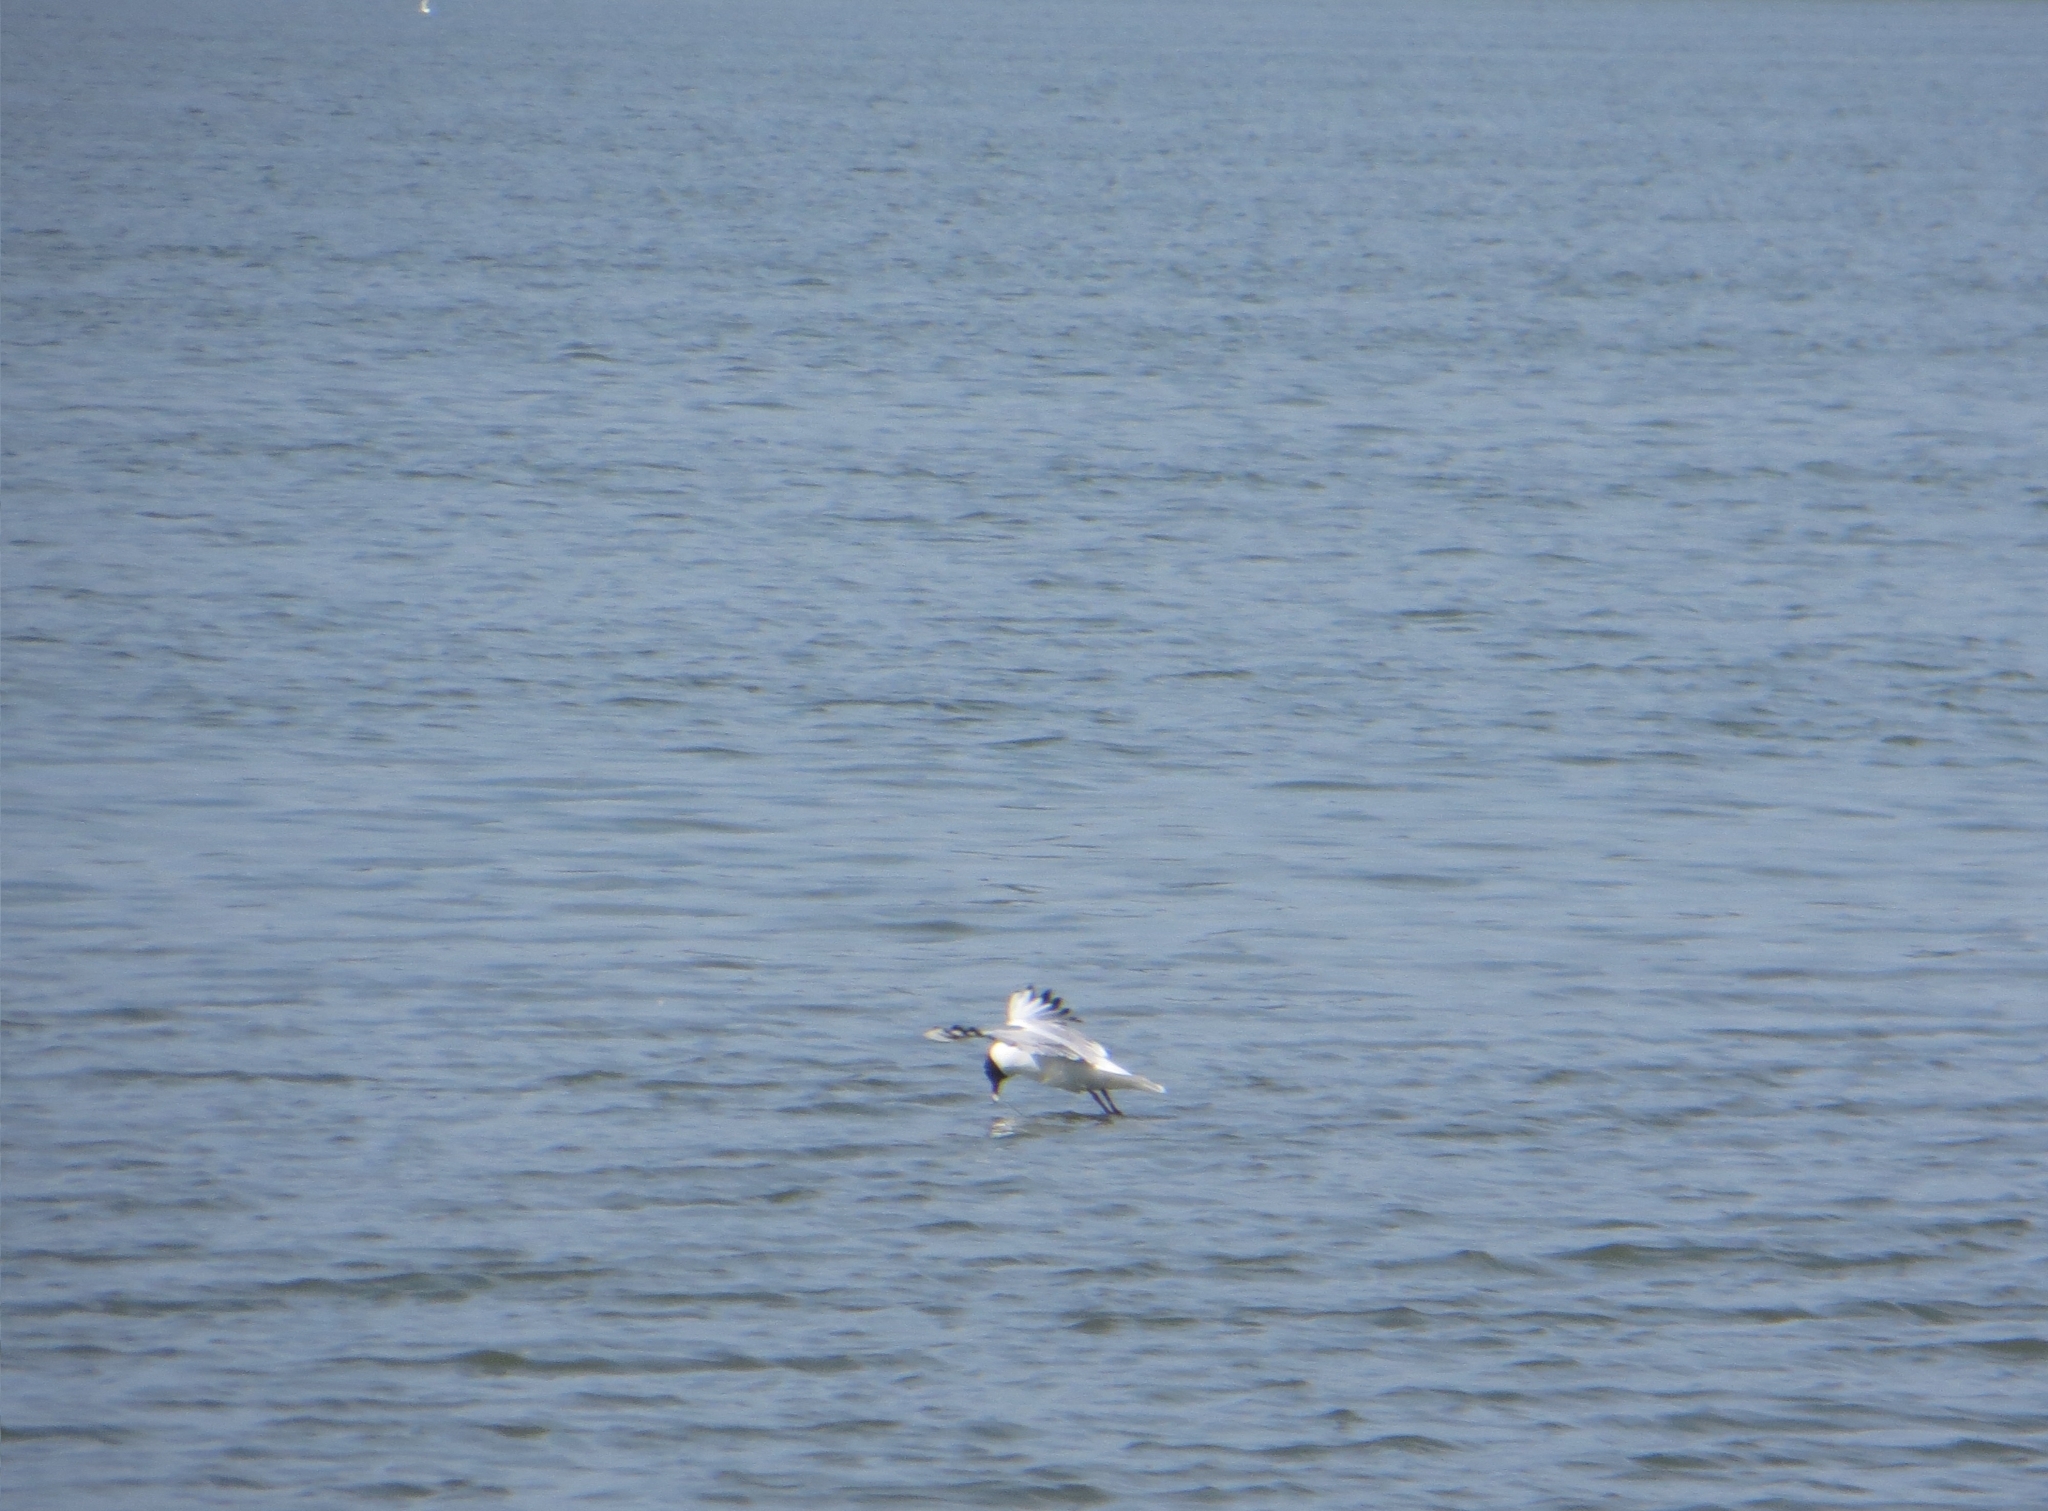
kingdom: Animalia
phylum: Chordata
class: Aves
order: Charadriiformes
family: Laridae
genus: Chroicocephalus
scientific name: Chroicocephalus ridibundus
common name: Black-headed gull
